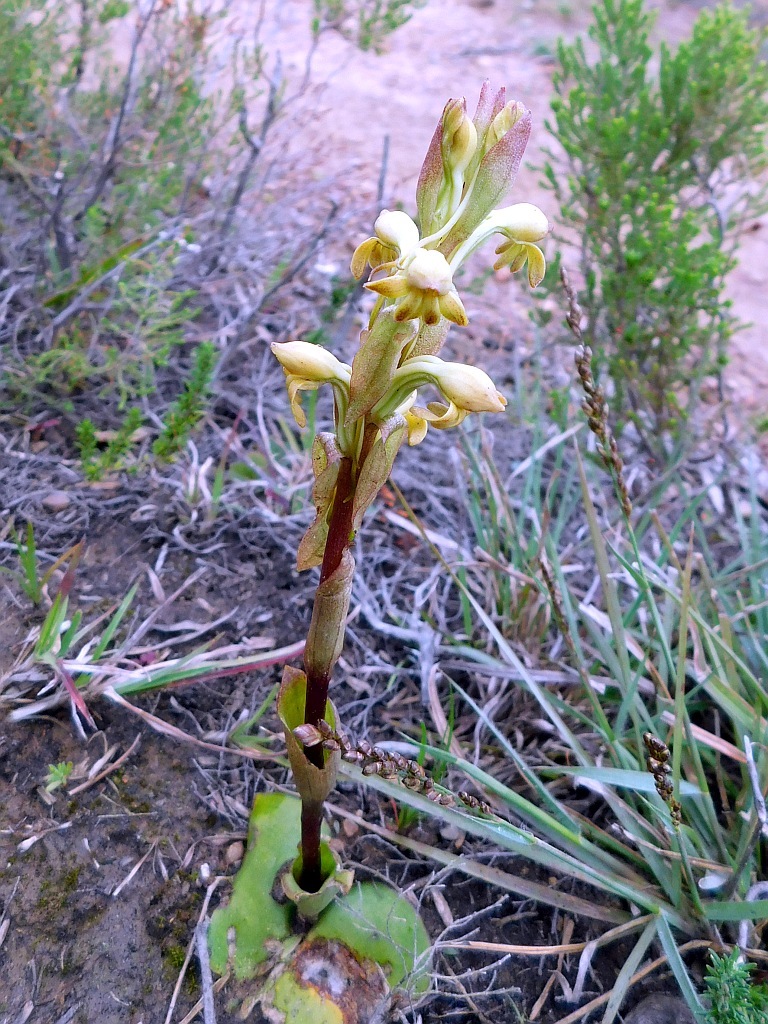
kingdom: Plantae
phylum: Tracheophyta
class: Liliopsida
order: Asparagales
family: Orchidaceae
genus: Satyrium
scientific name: Satyrium bicorne
